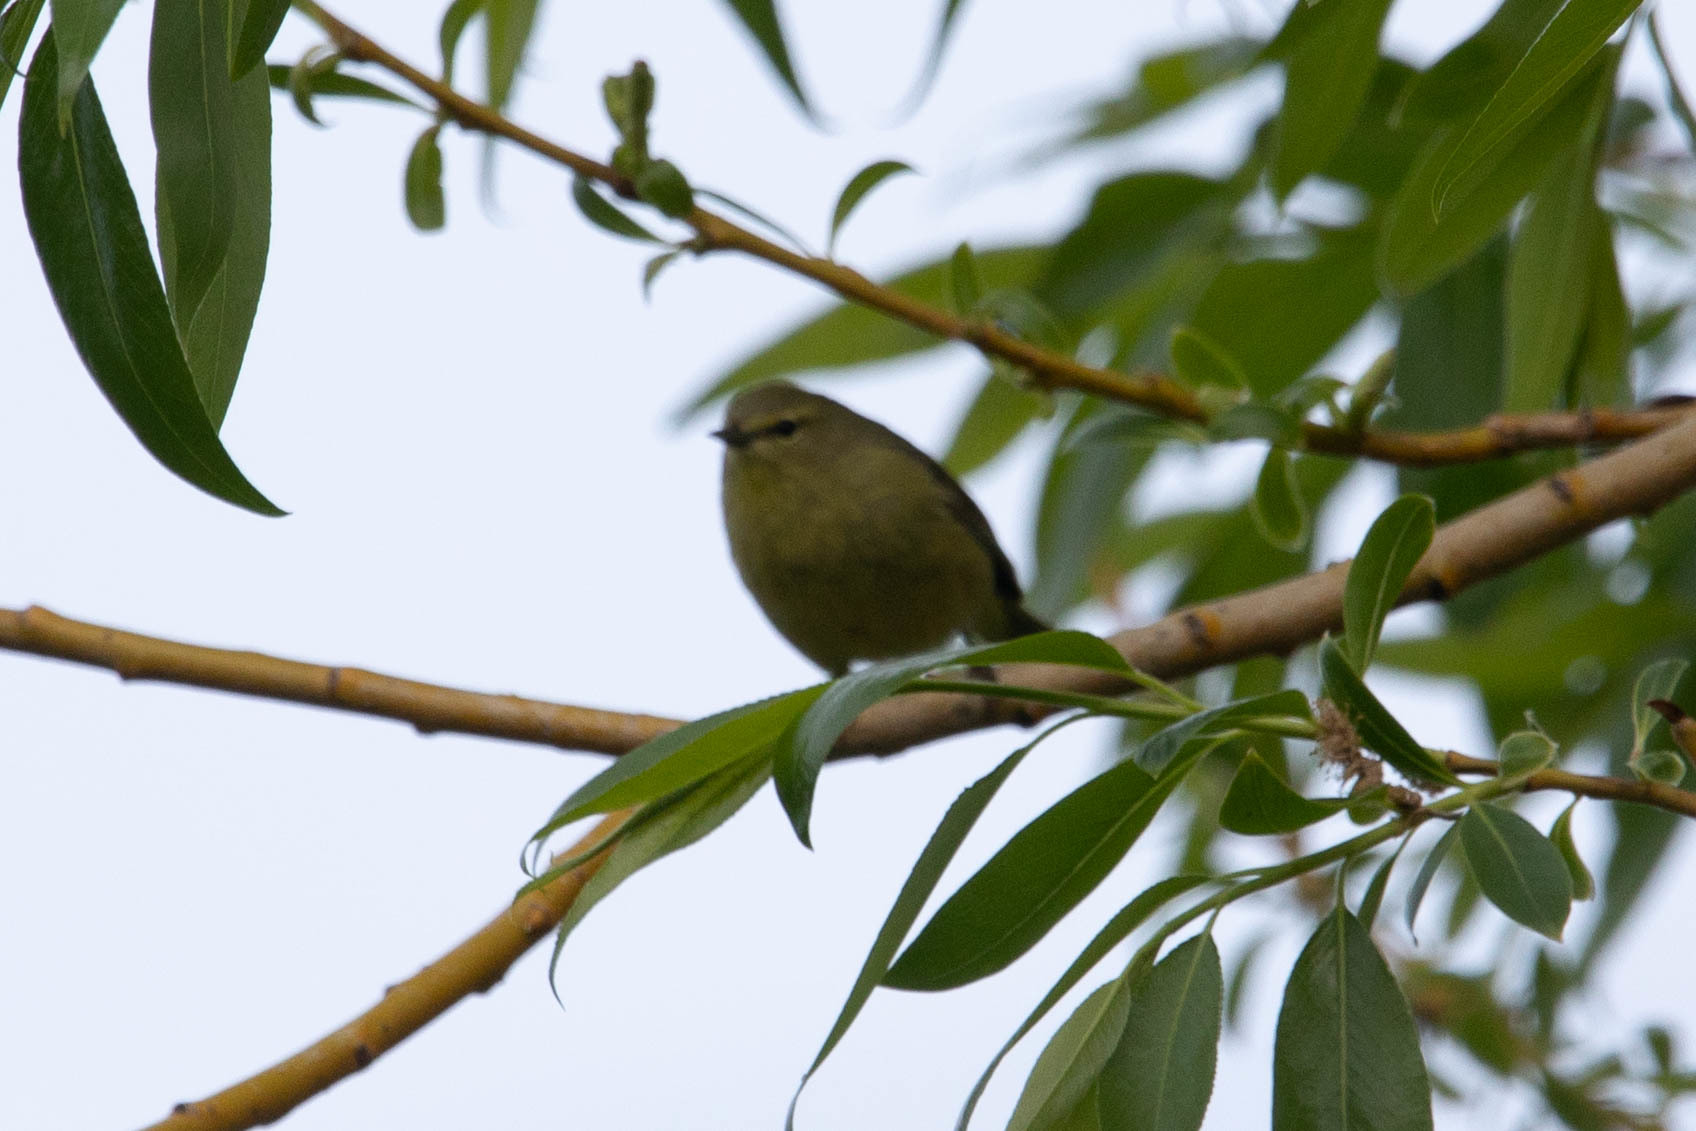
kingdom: Animalia
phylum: Chordata
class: Aves
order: Passeriformes
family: Parulidae
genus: Leiothlypis
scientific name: Leiothlypis celata
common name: Orange-crowned warbler
